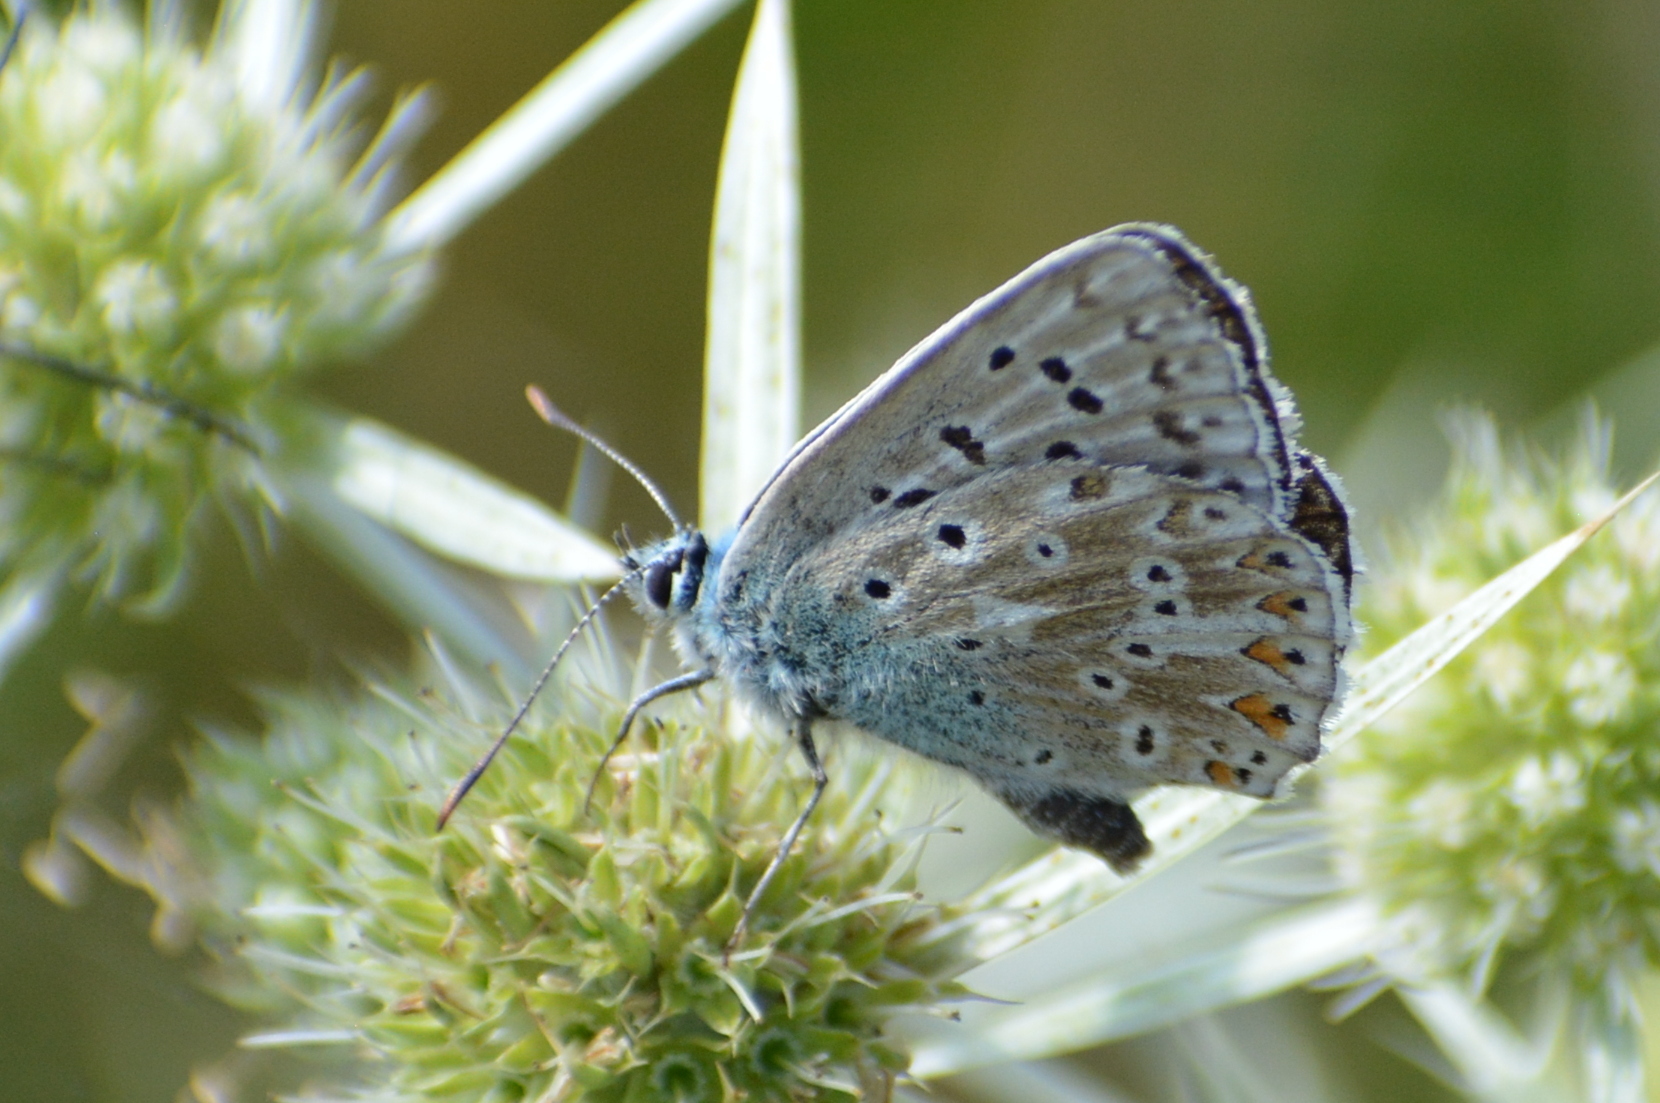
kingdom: Animalia
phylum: Arthropoda
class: Insecta
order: Lepidoptera
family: Lycaenidae
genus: Lysandra
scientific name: Lysandra coridon
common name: Chalkhill blue
